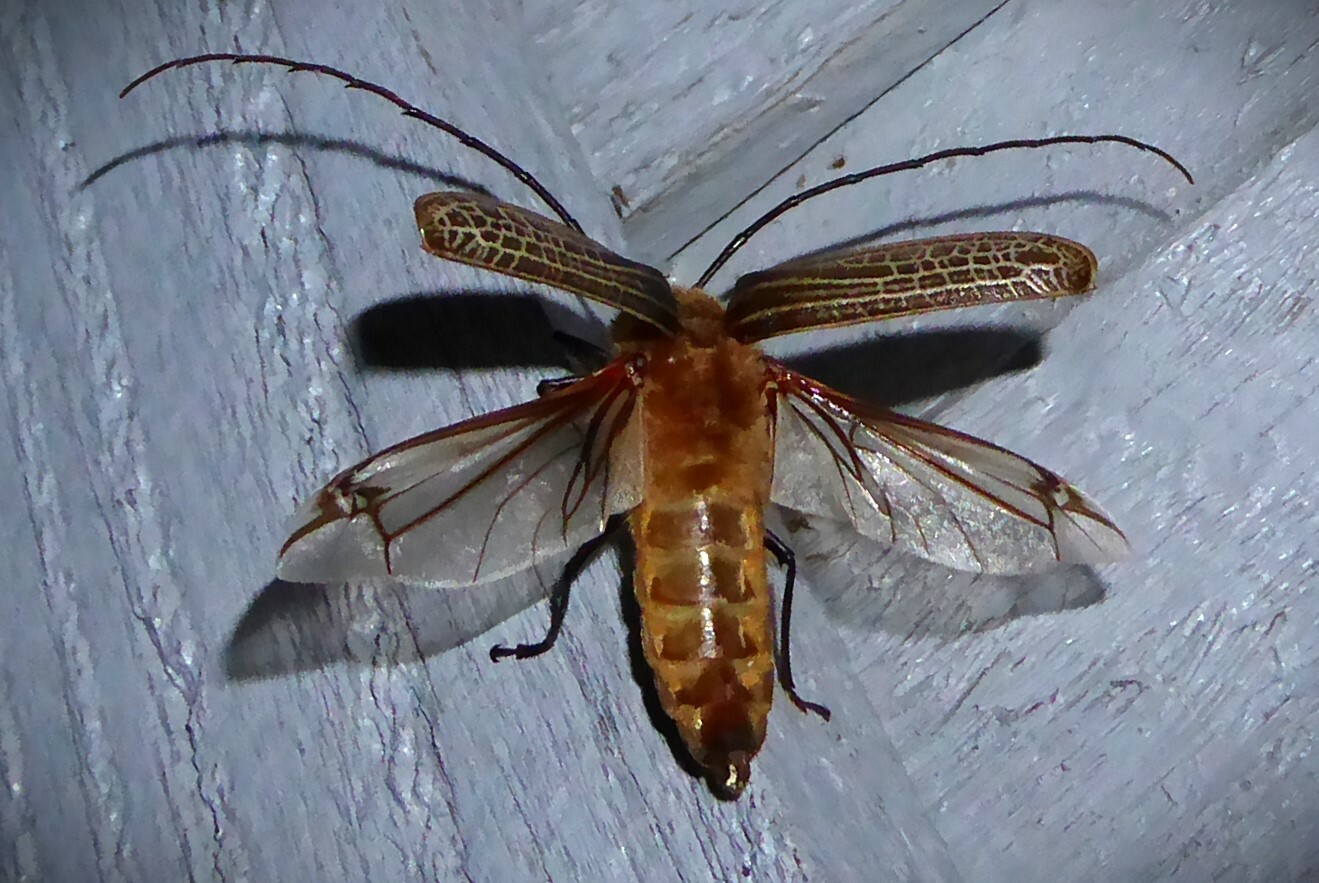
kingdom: Animalia
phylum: Arthropoda
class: Insecta
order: Coleoptera
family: Cerambycidae
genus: Prionoplus
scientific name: Prionoplus reticularis
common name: Huhu beetle
